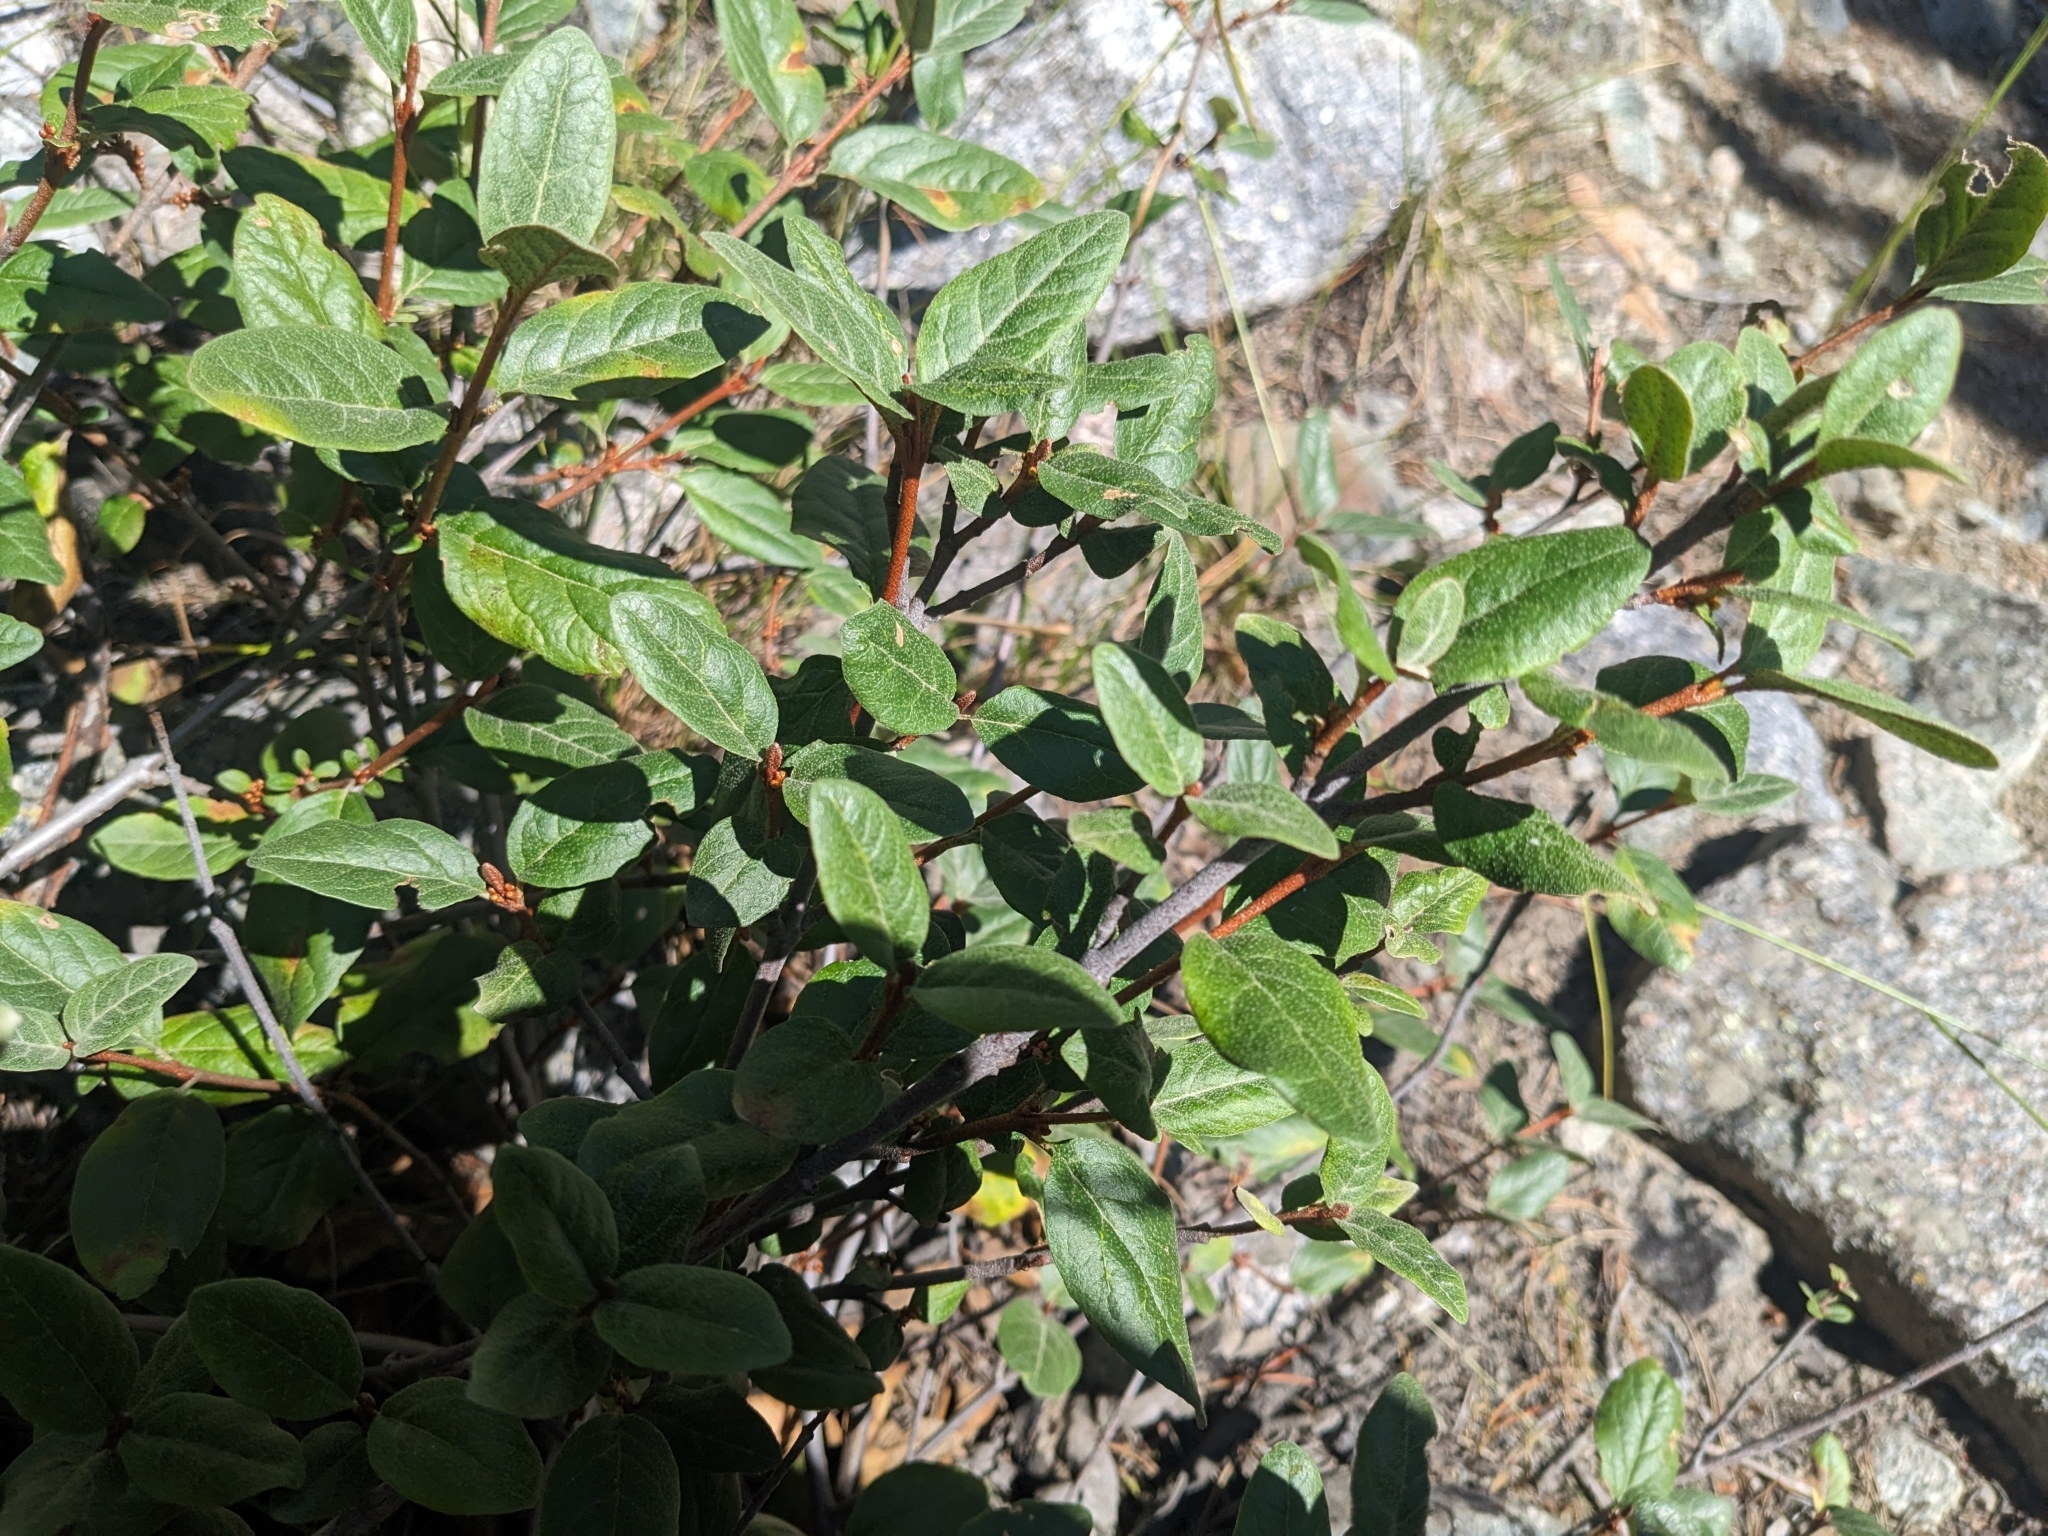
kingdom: Plantae
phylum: Tracheophyta
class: Magnoliopsida
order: Rosales
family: Elaeagnaceae
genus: Shepherdia
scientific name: Shepherdia canadensis
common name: Soapberry
